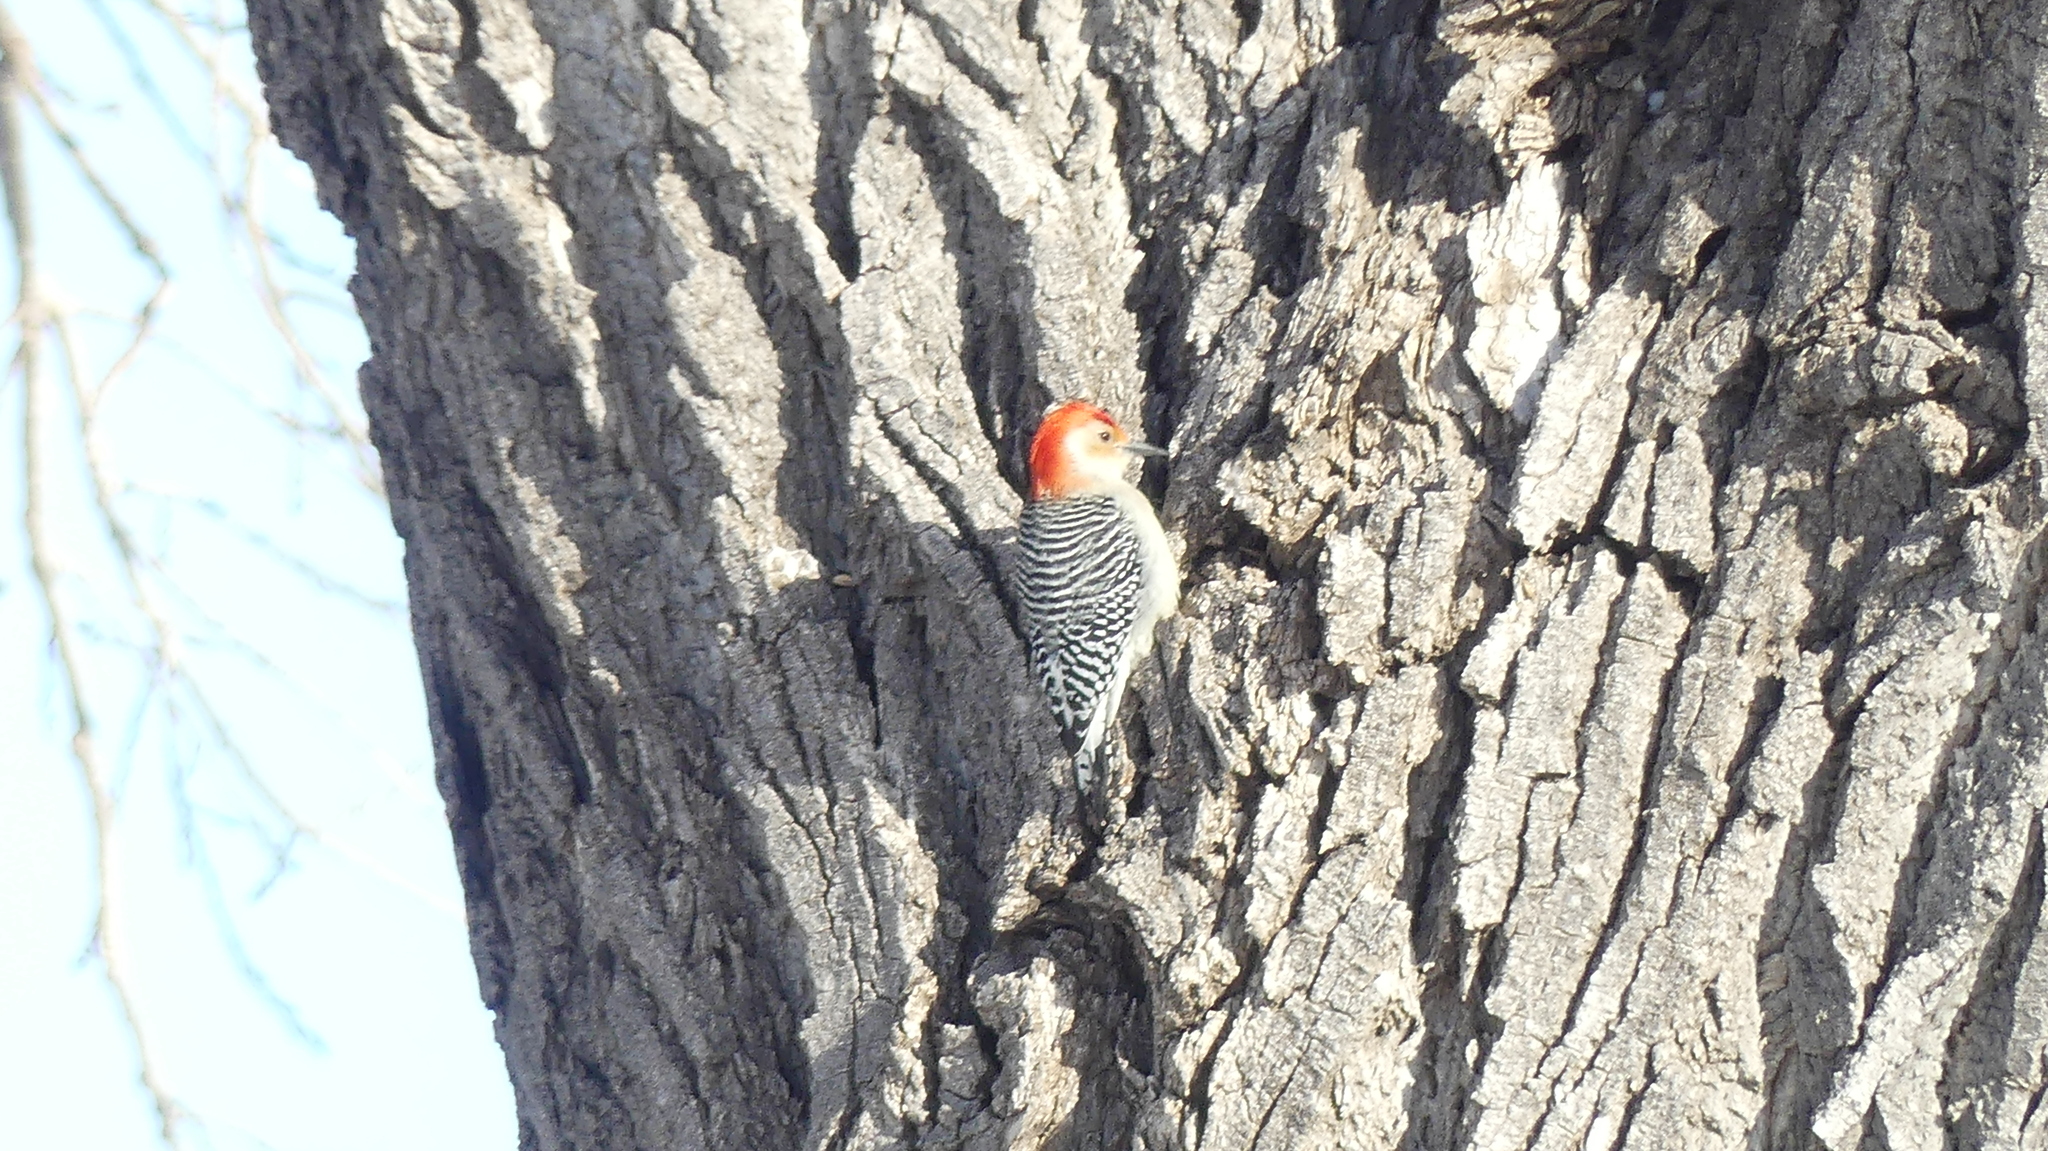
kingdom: Animalia
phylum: Chordata
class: Aves
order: Piciformes
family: Picidae
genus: Melanerpes
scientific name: Melanerpes carolinus
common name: Red-bellied woodpecker
